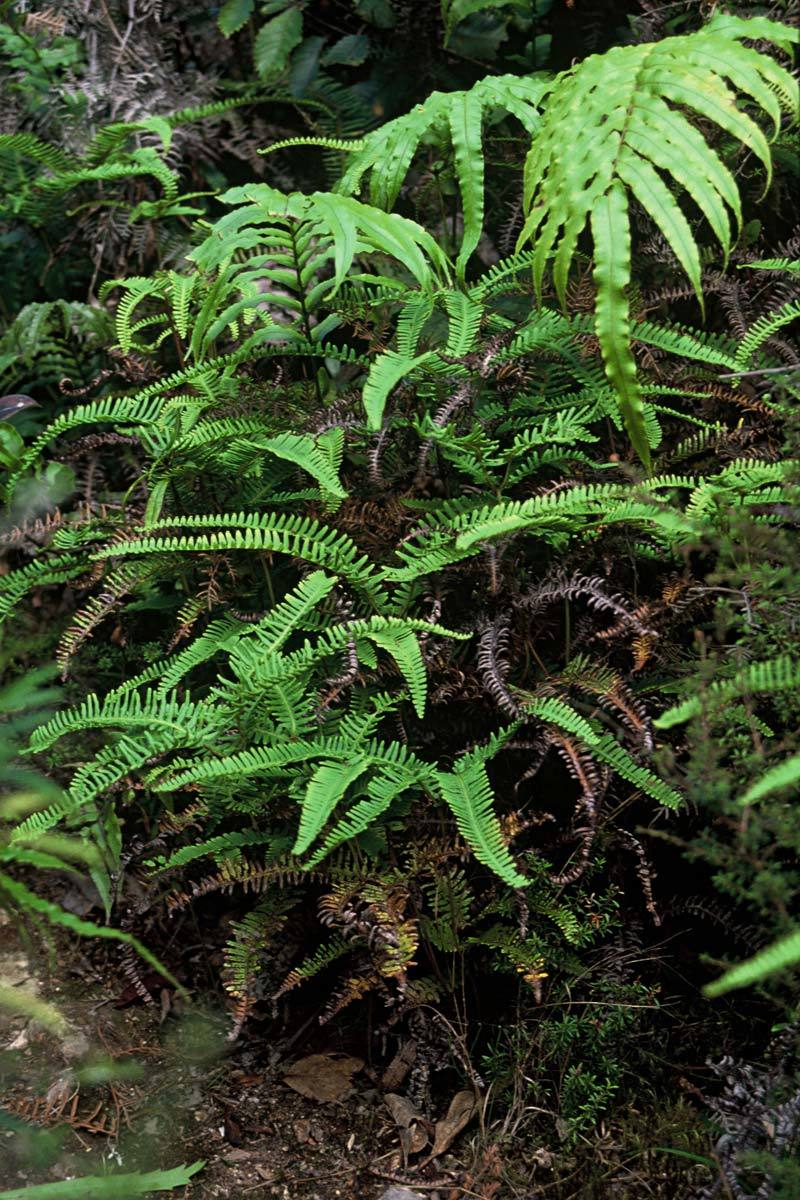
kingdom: Plantae
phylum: Tracheophyta
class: Polypodiopsida
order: Gleicheniales
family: Gleicheniaceae
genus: Dicranopteris
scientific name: Dicranopteris linearis
